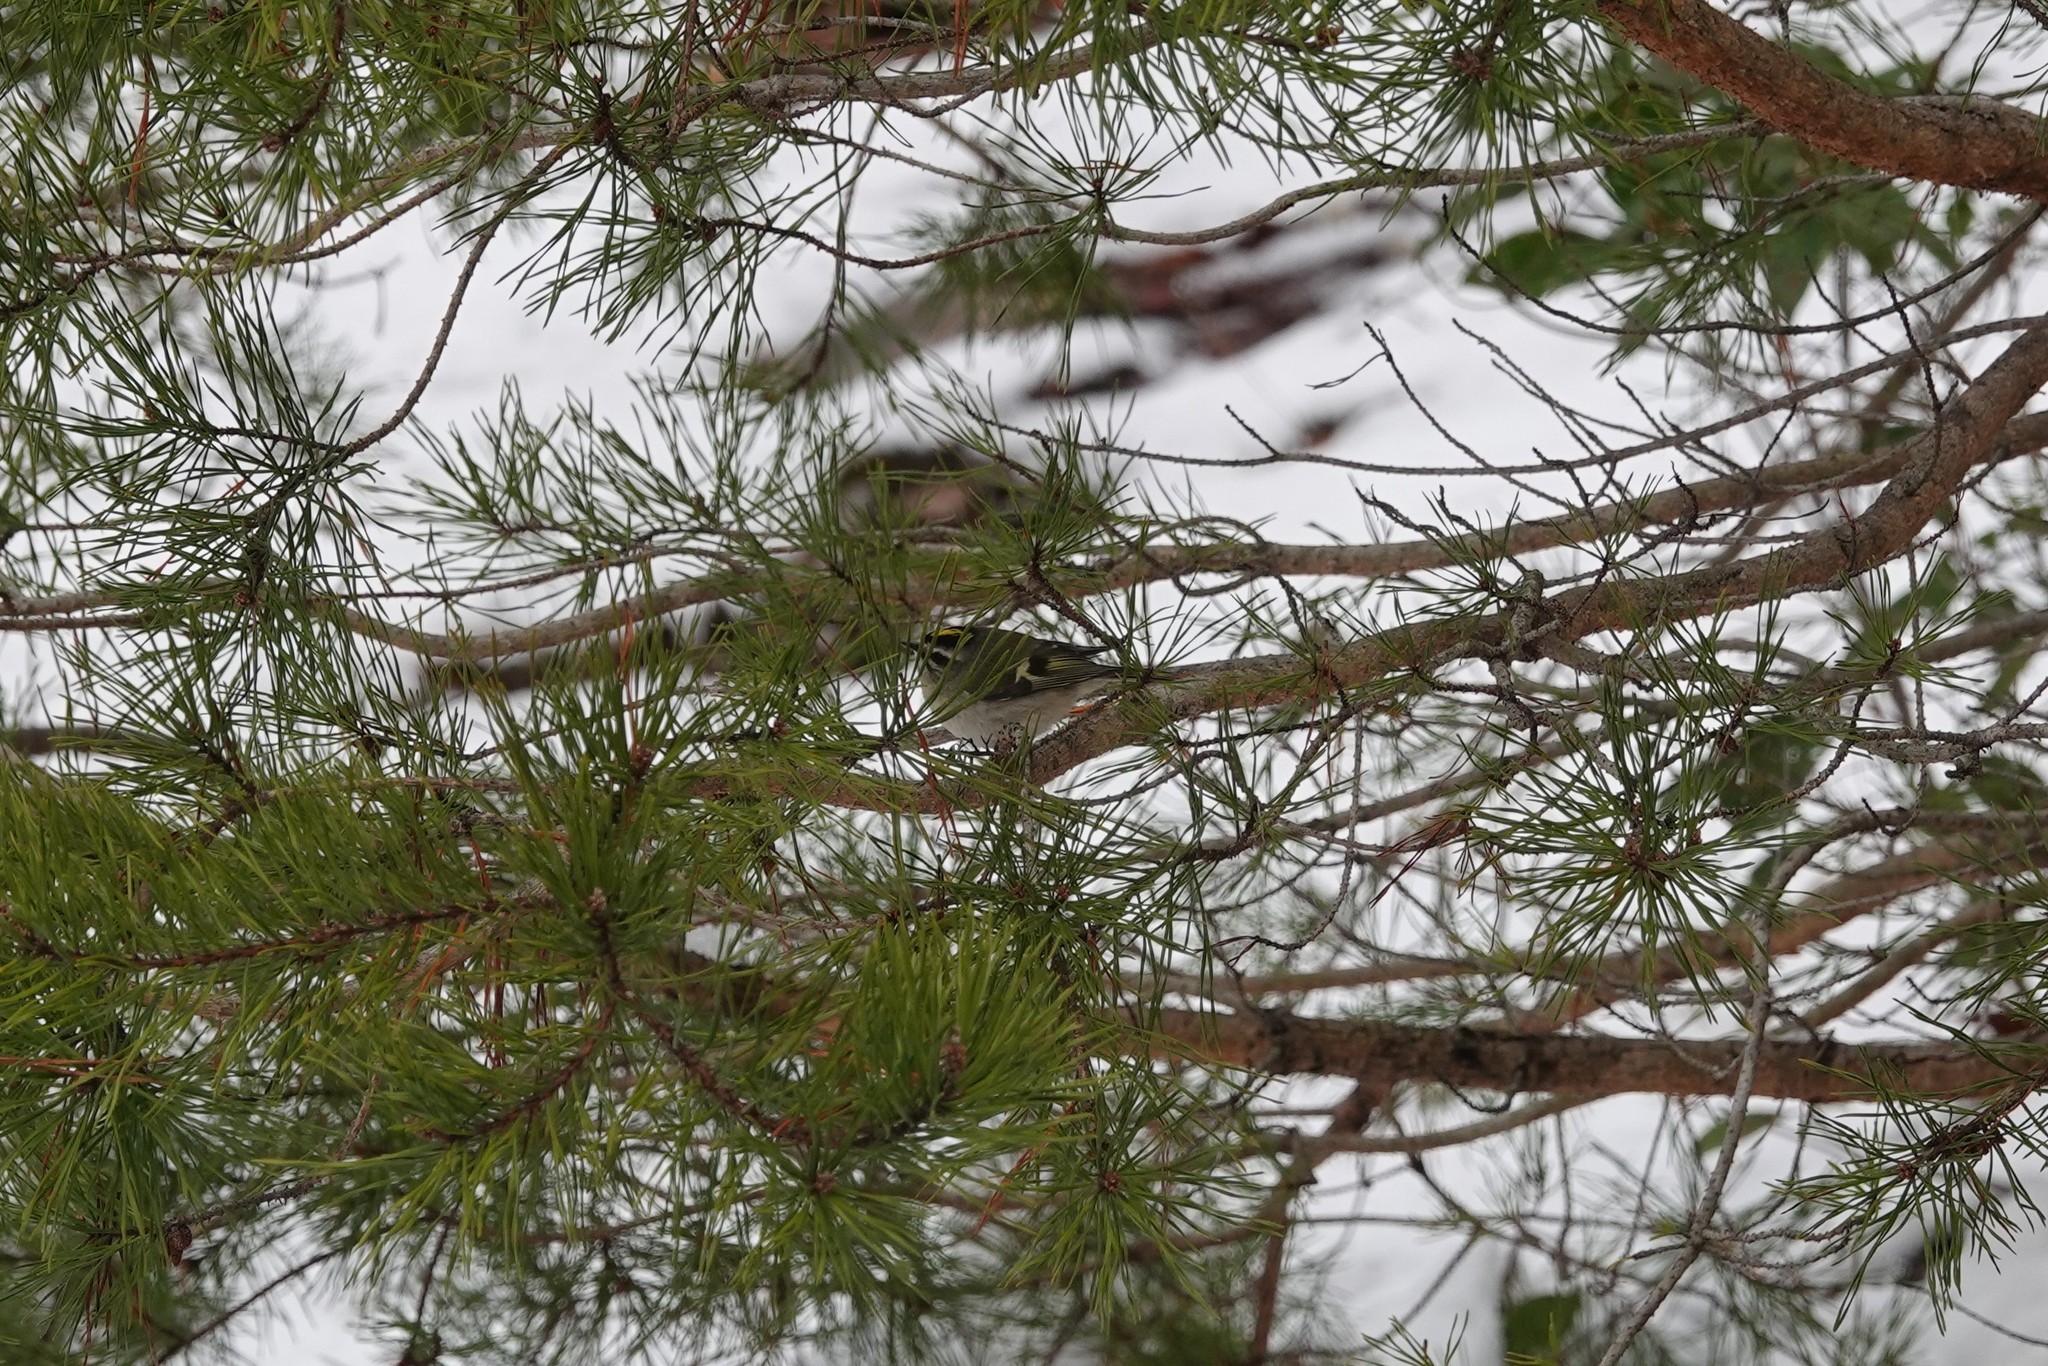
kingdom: Animalia
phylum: Chordata
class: Aves
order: Passeriformes
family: Regulidae
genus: Regulus
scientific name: Regulus satrapa
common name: Golden-crowned kinglet
